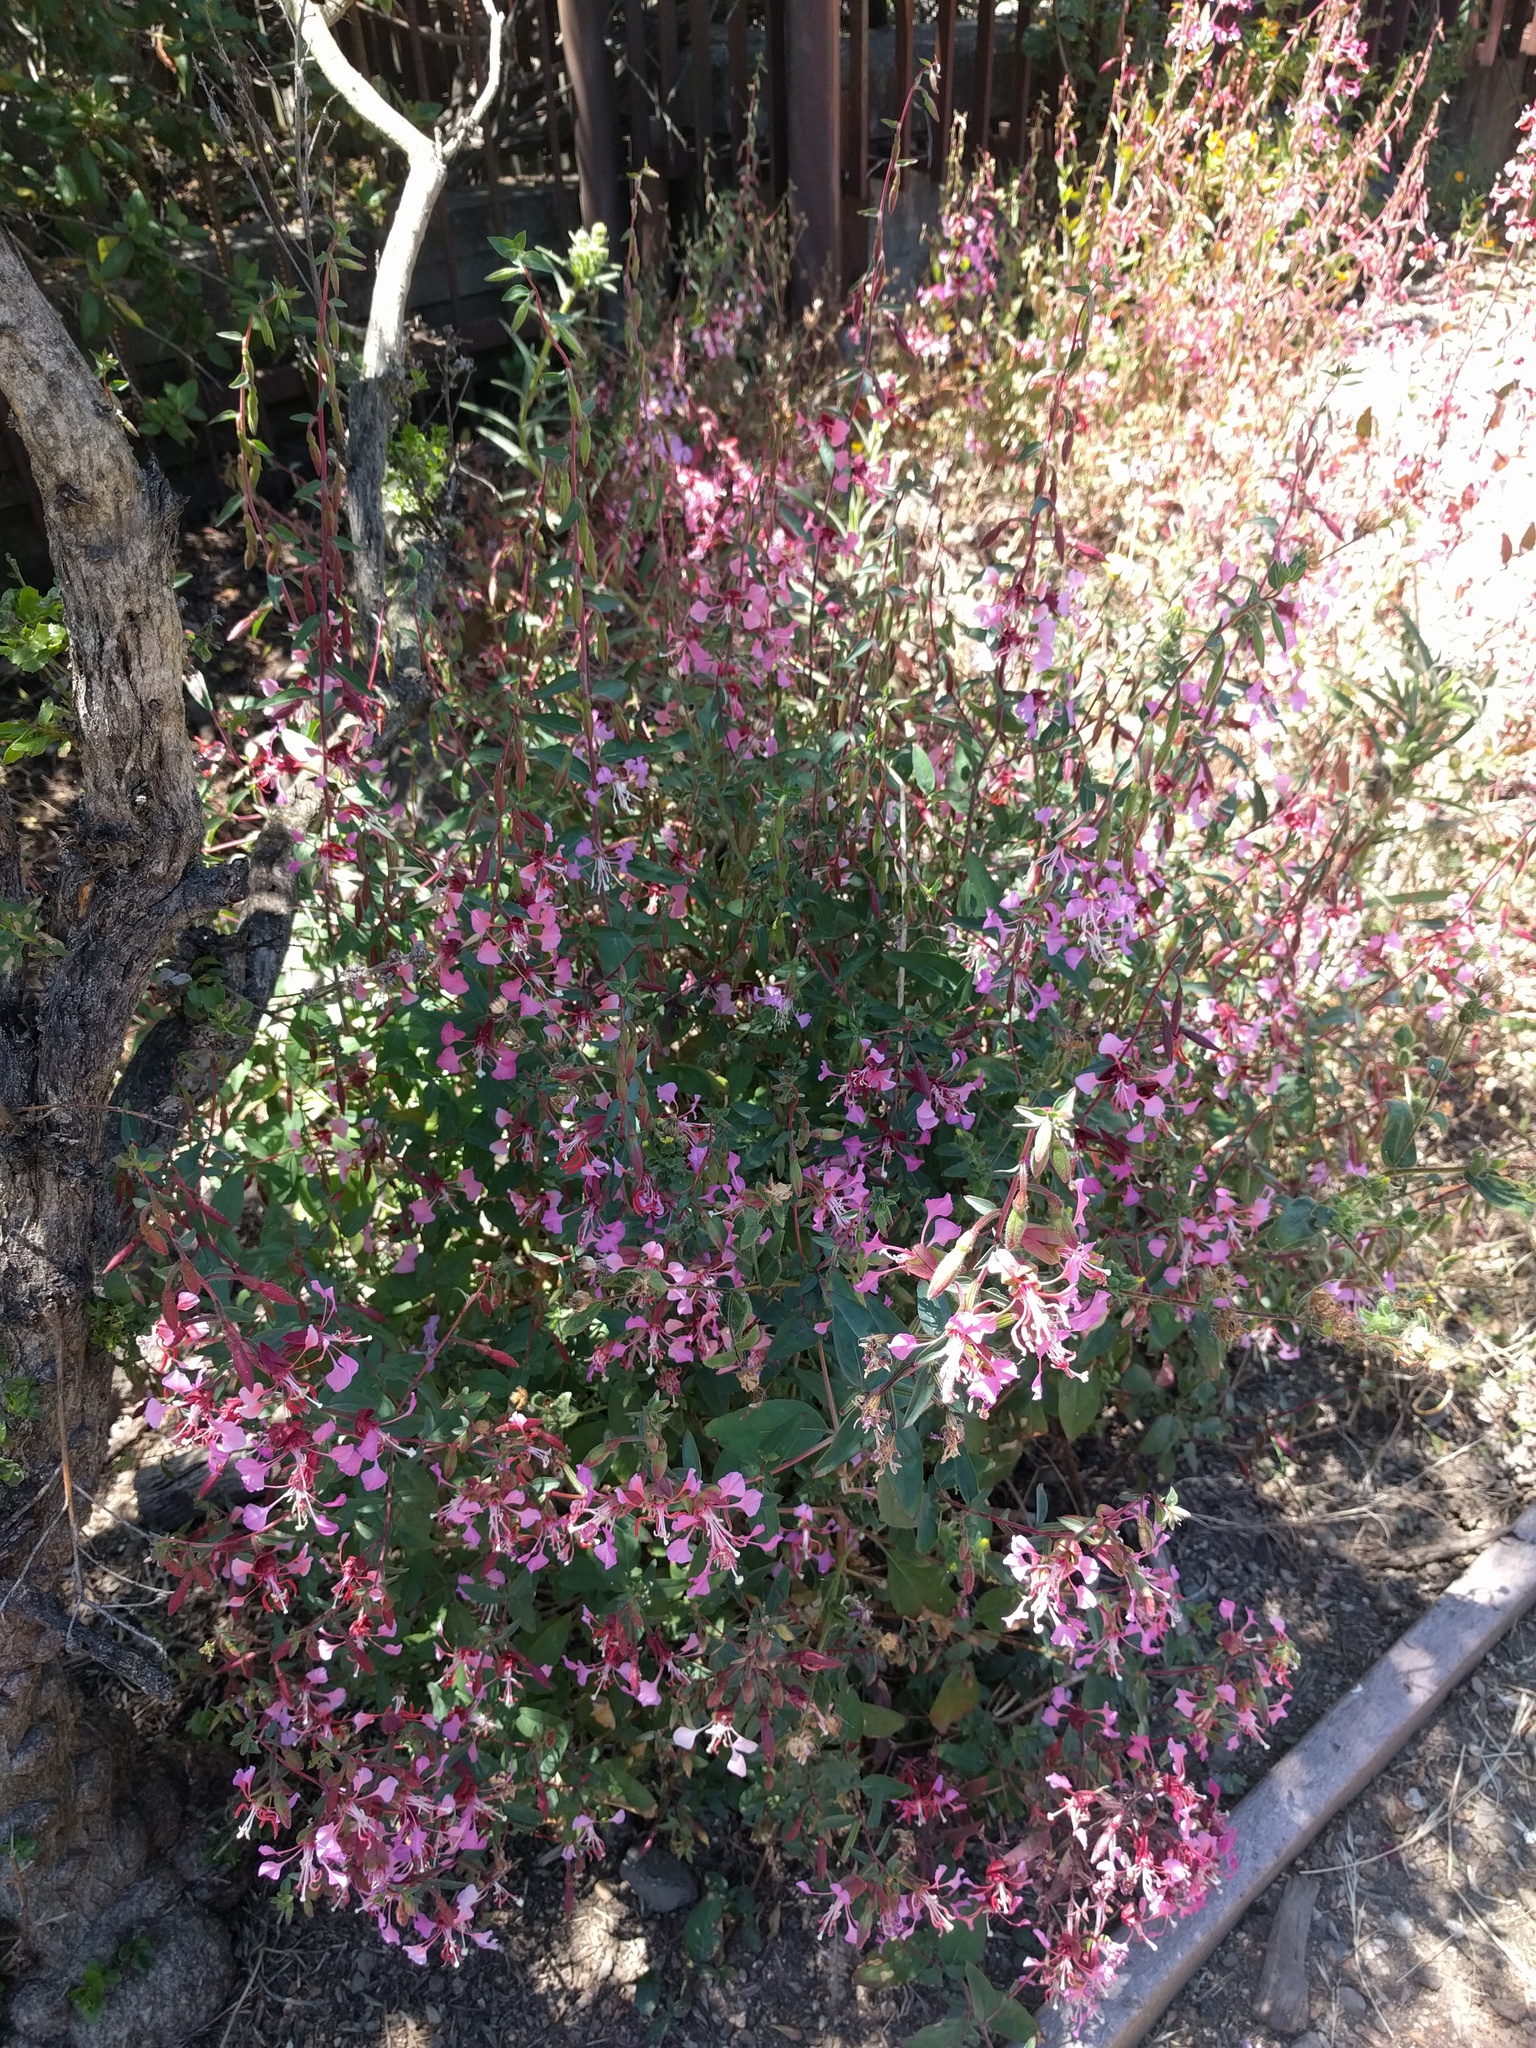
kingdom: Plantae
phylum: Tracheophyta
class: Magnoliopsida
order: Myrtales
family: Onagraceae
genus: Clarkia
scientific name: Clarkia unguiculata
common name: Clarkia
